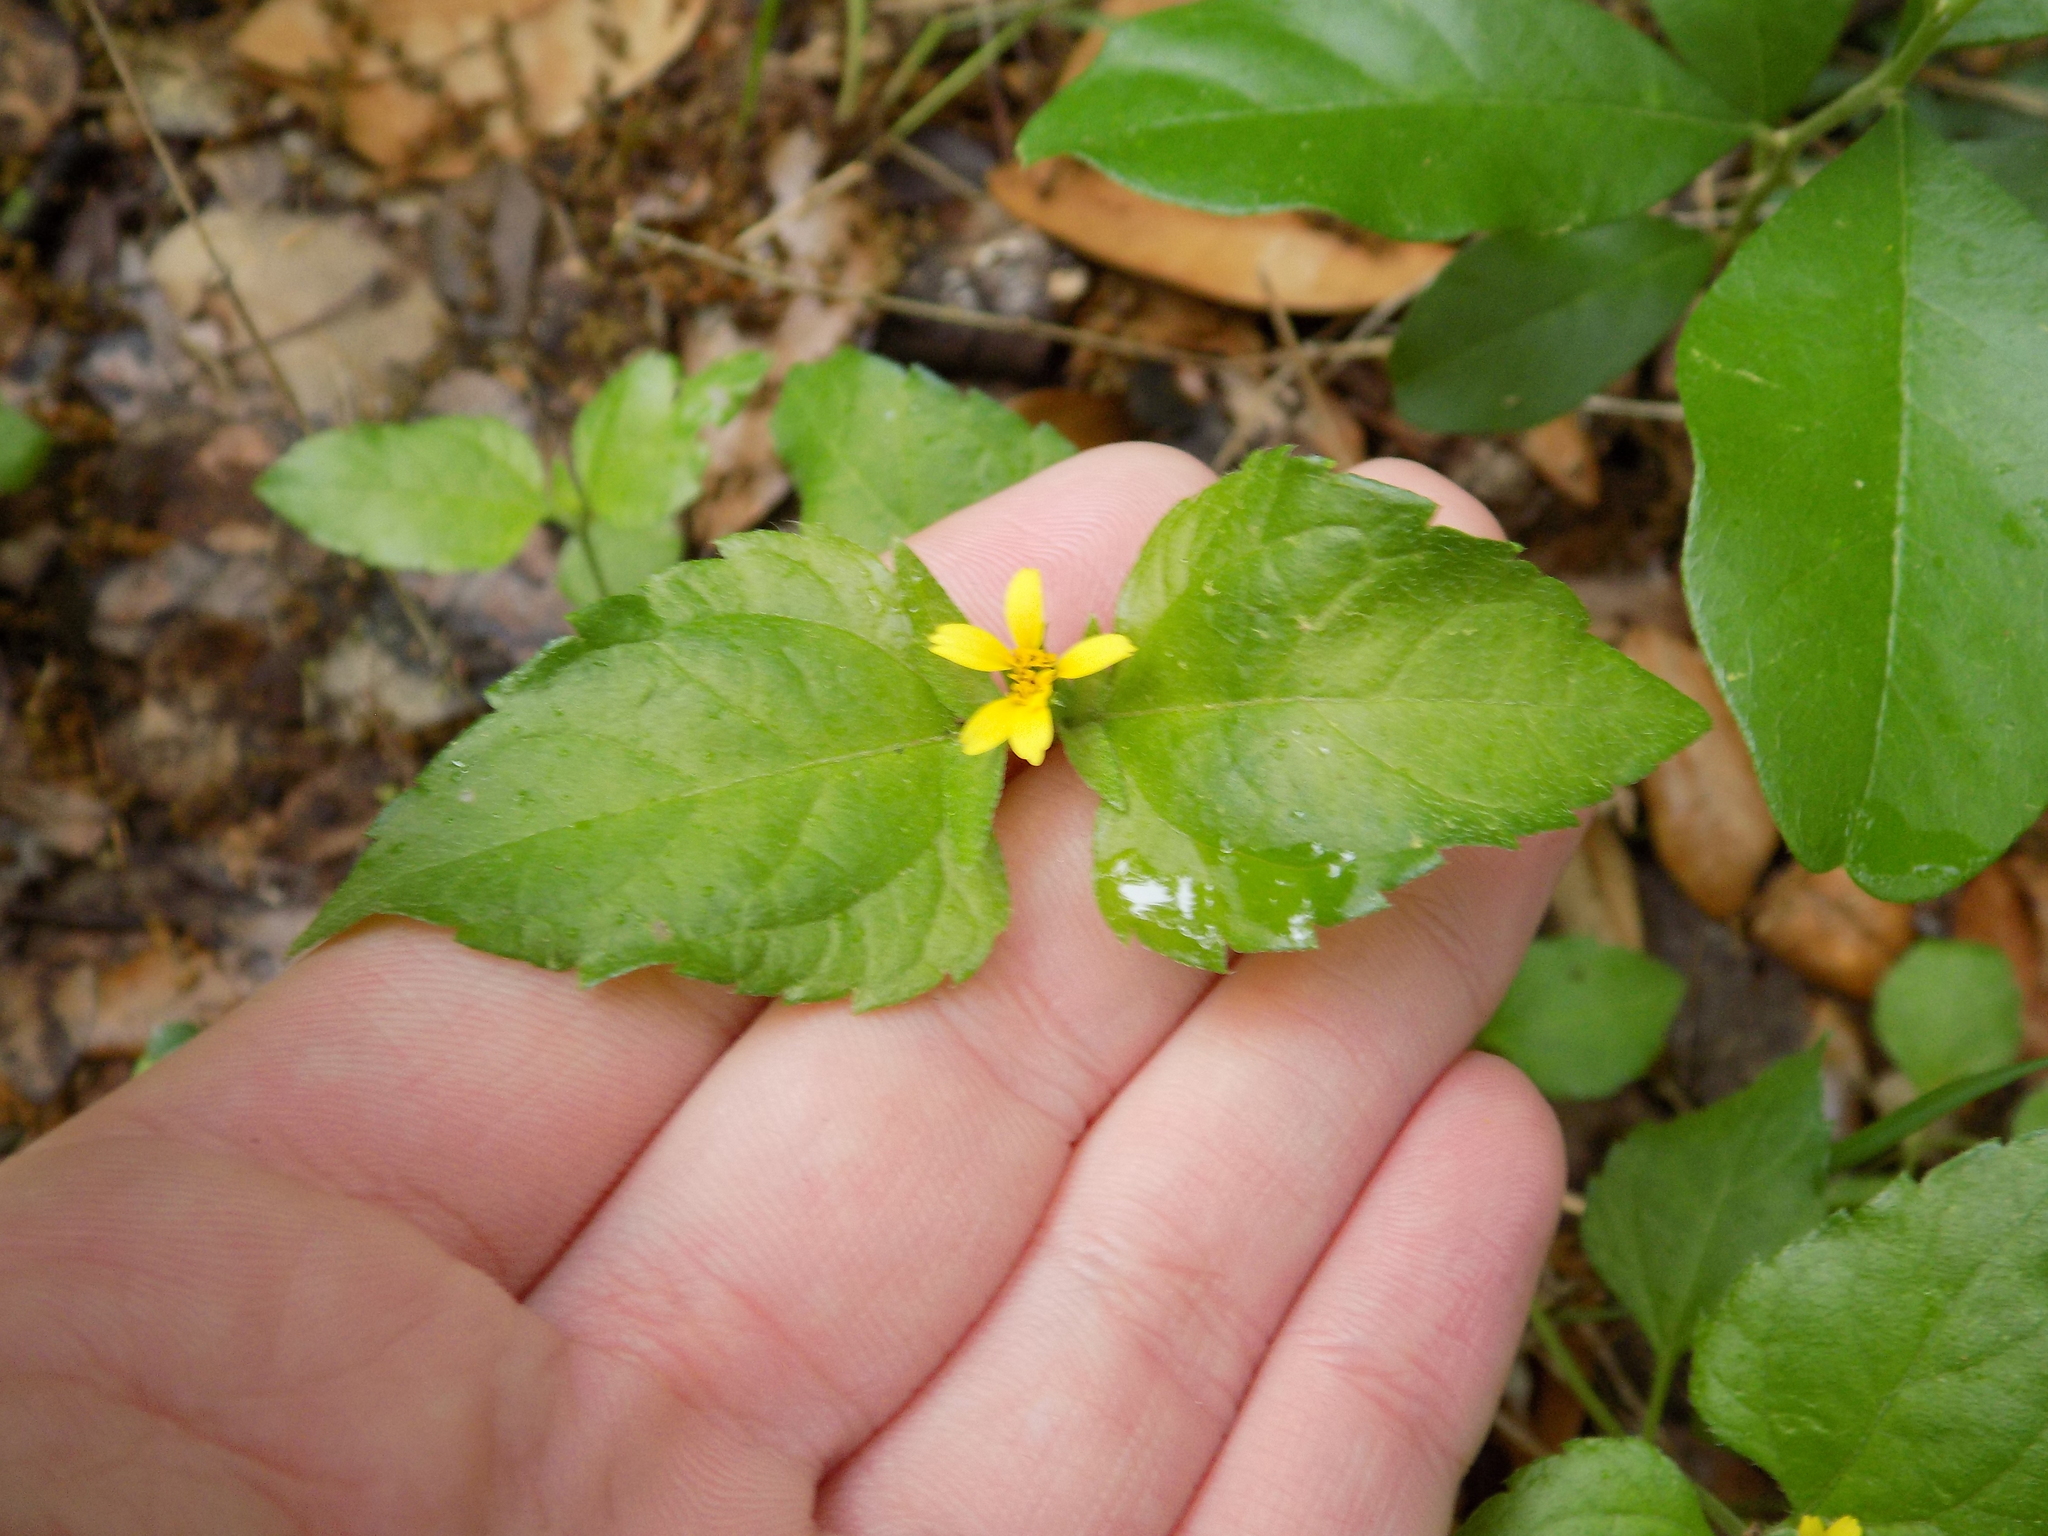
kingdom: Plantae
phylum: Tracheophyta
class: Magnoliopsida
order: Asterales
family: Asteraceae
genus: Calyptocarpus
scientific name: Calyptocarpus vialis
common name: Straggler daisy
